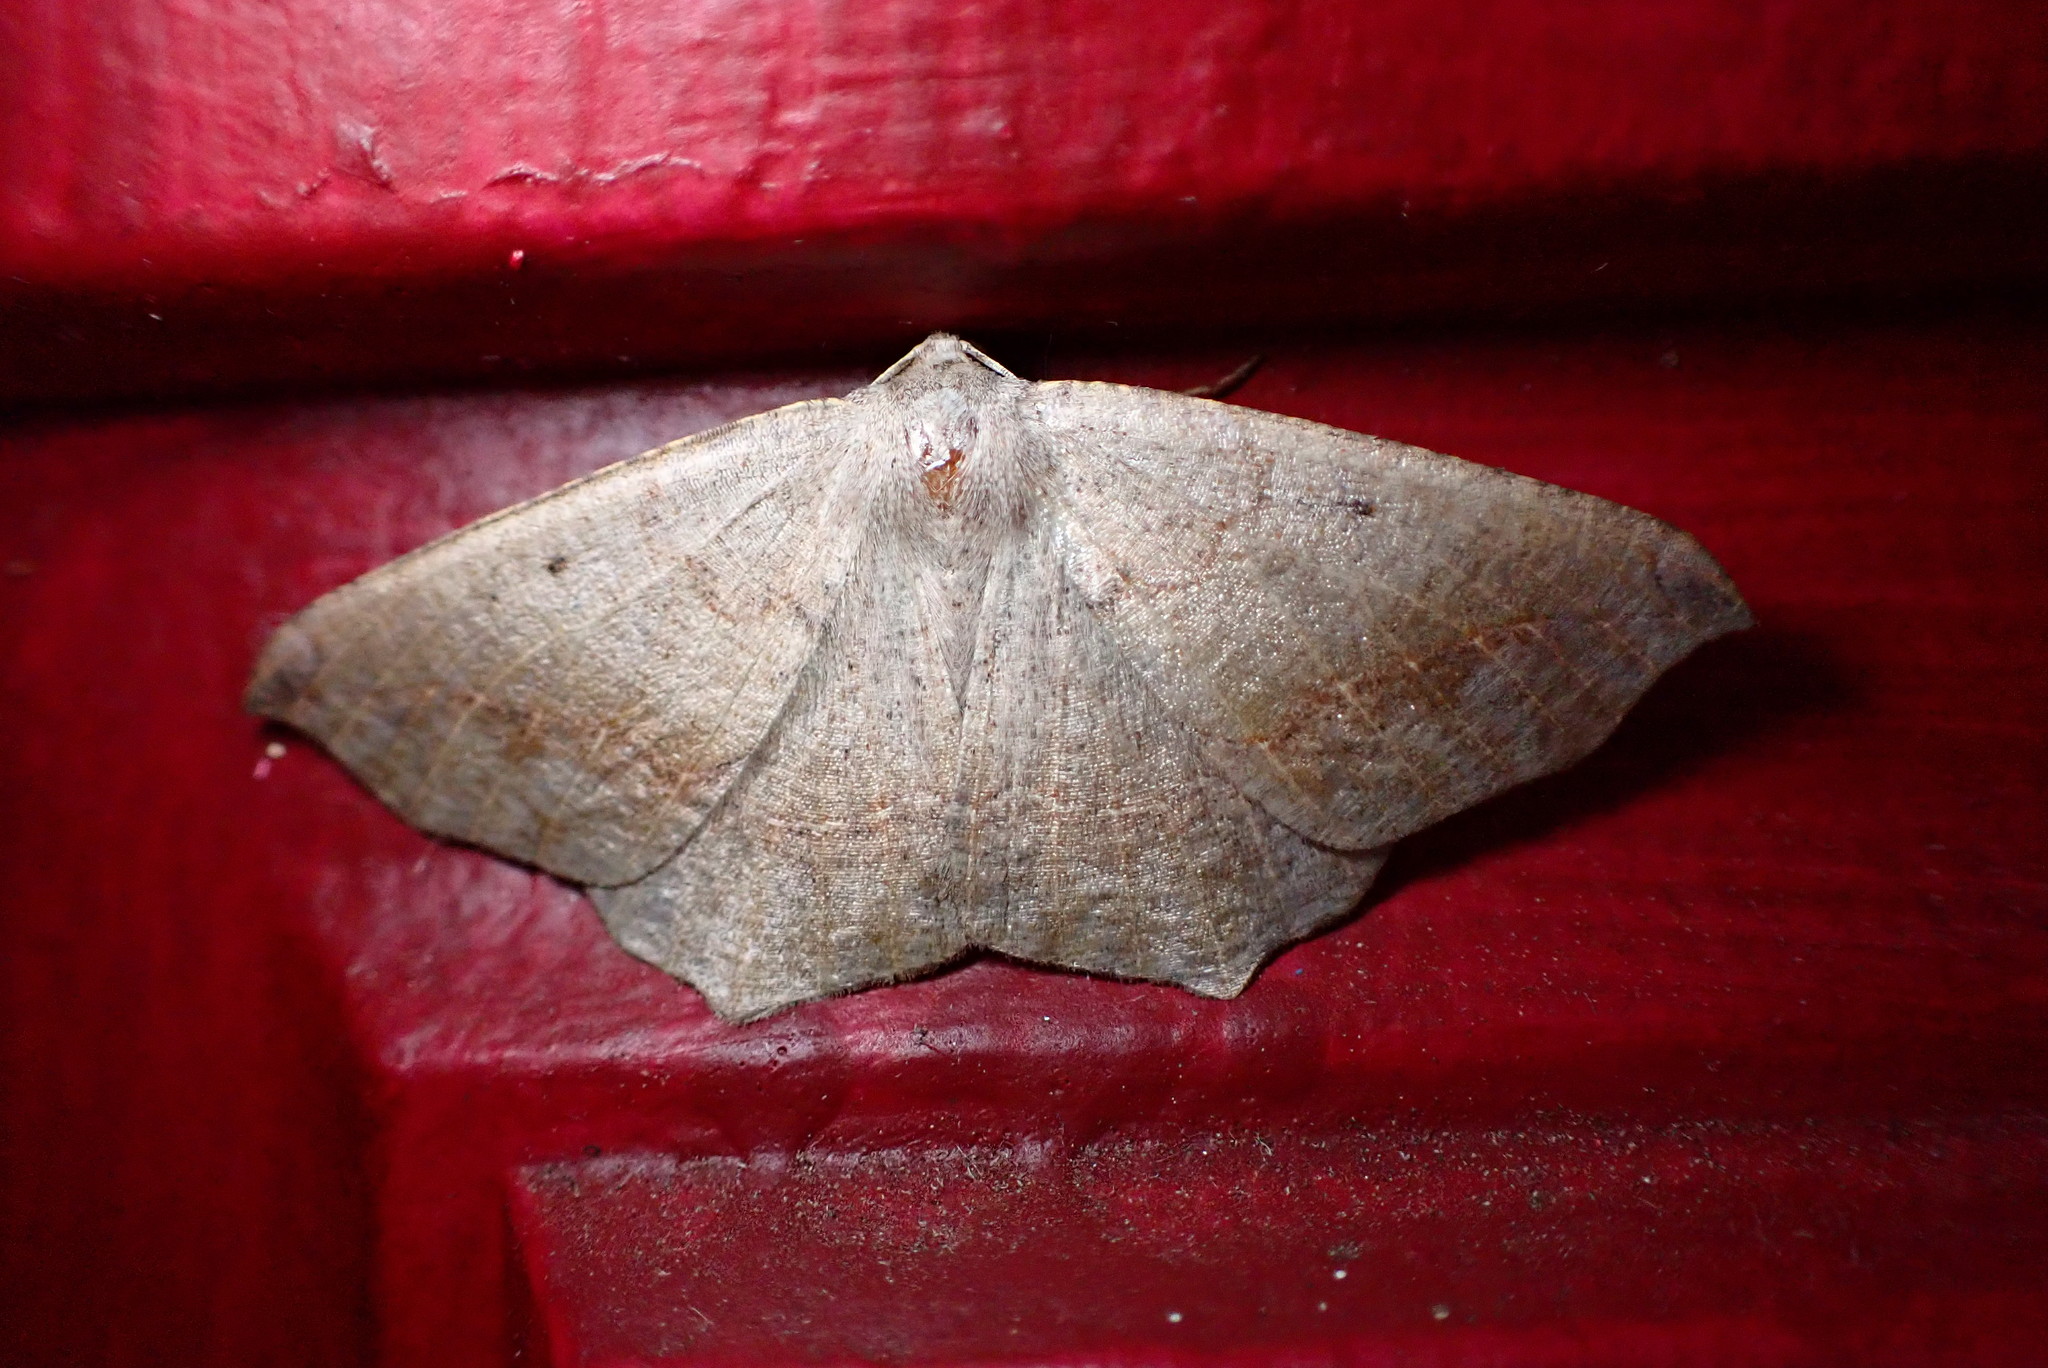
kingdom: Animalia
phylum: Arthropoda
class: Insecta
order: Lepidoptera
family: Geometridae
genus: Prochoerodes
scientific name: Prochoerodes forficaria
